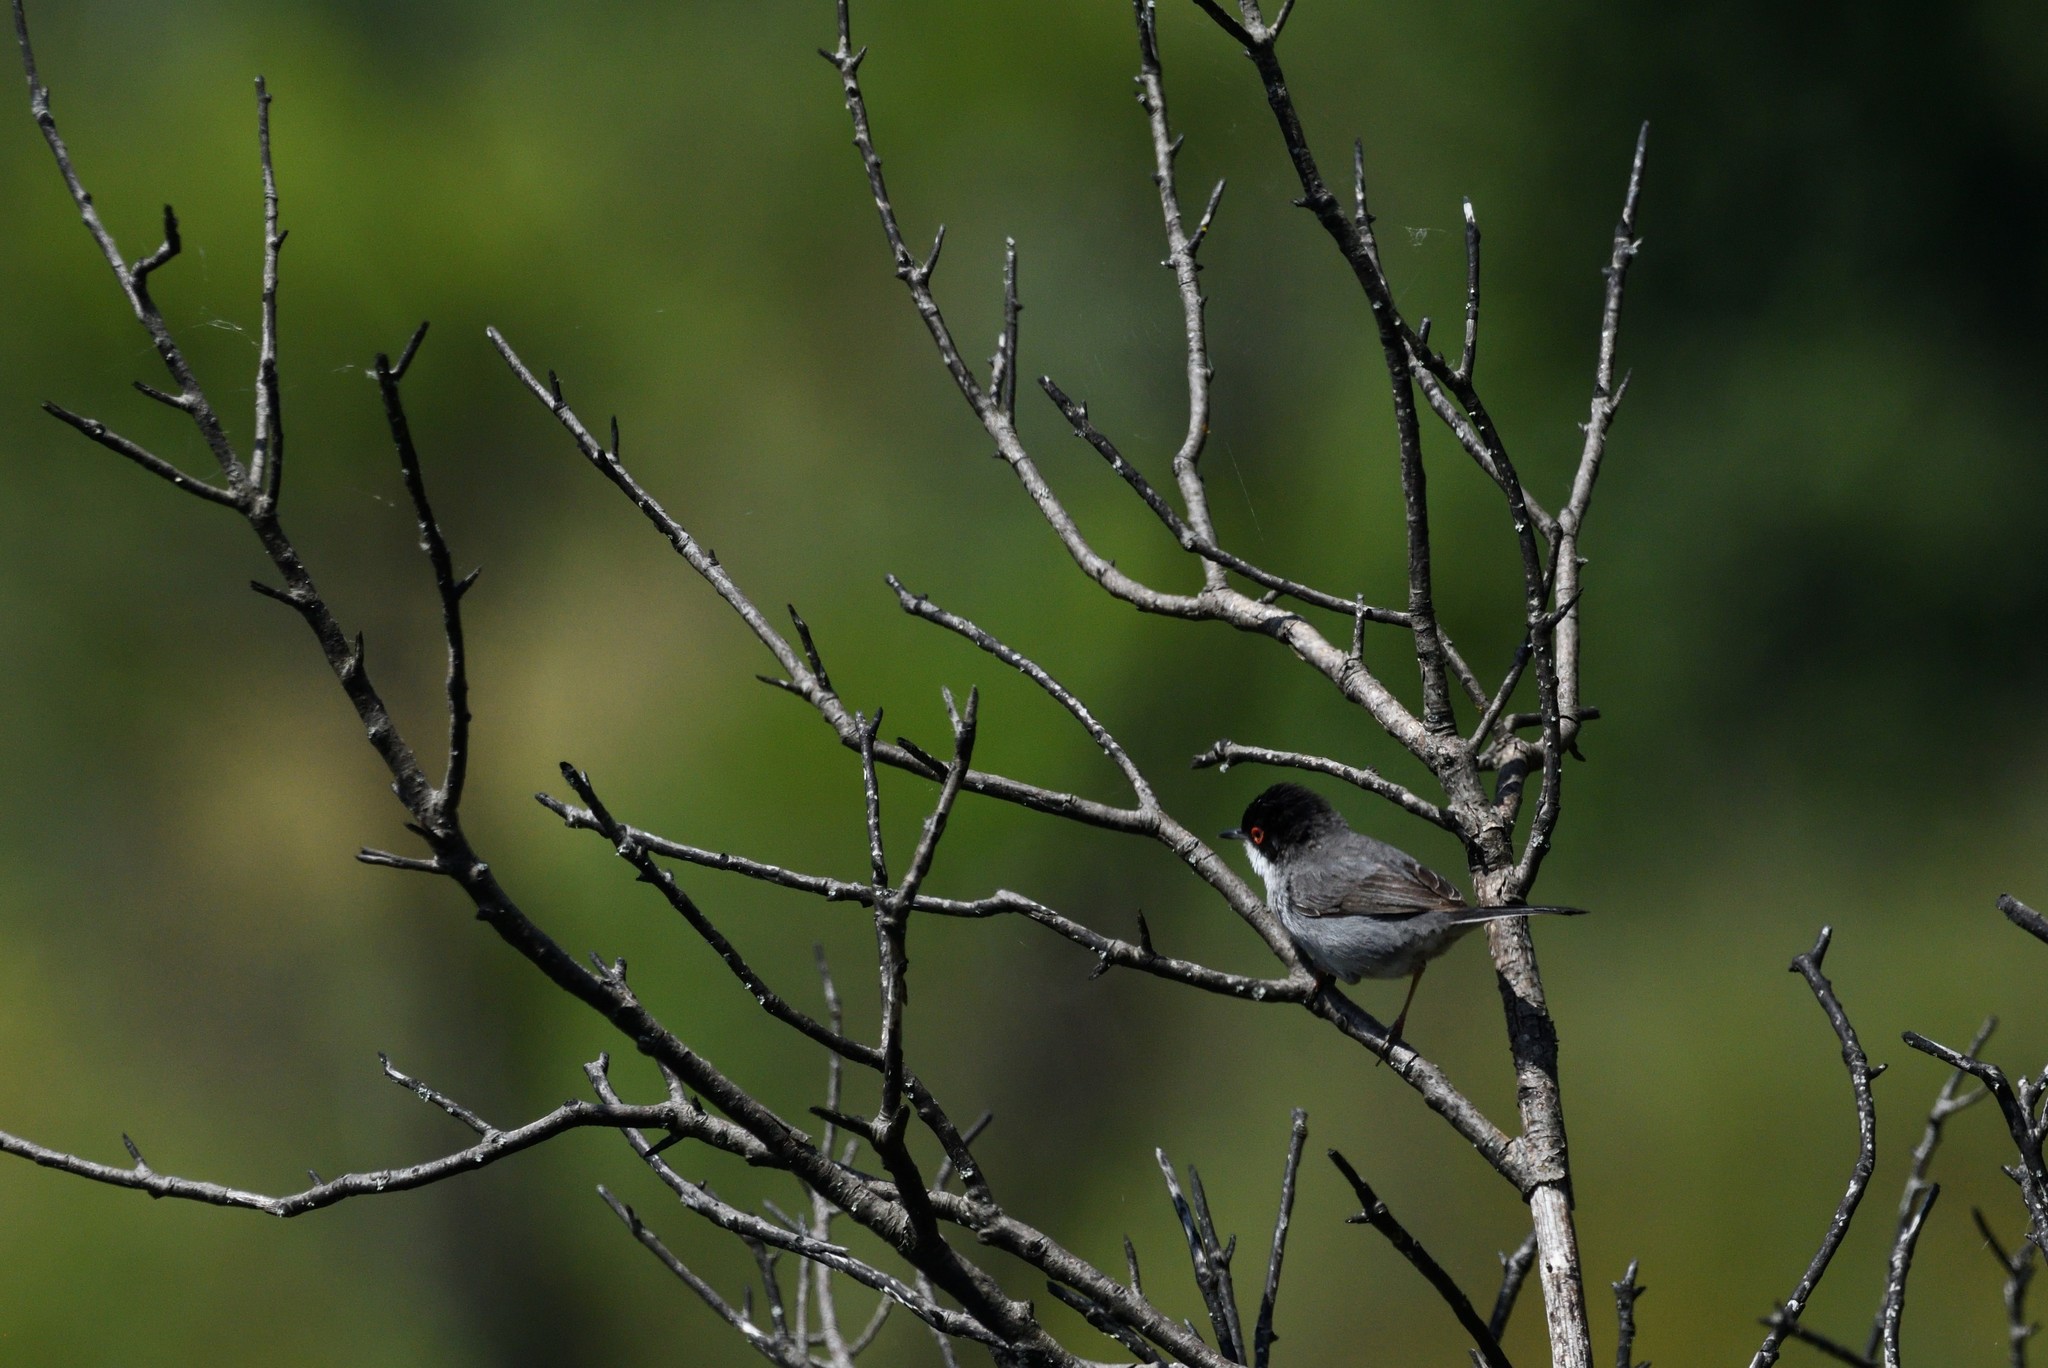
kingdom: Animalia
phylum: Chordata
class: Aves
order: Passeriformes
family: Sylviidae
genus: Curruca
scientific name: Curruca melanocephala
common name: Sardinian warbler
